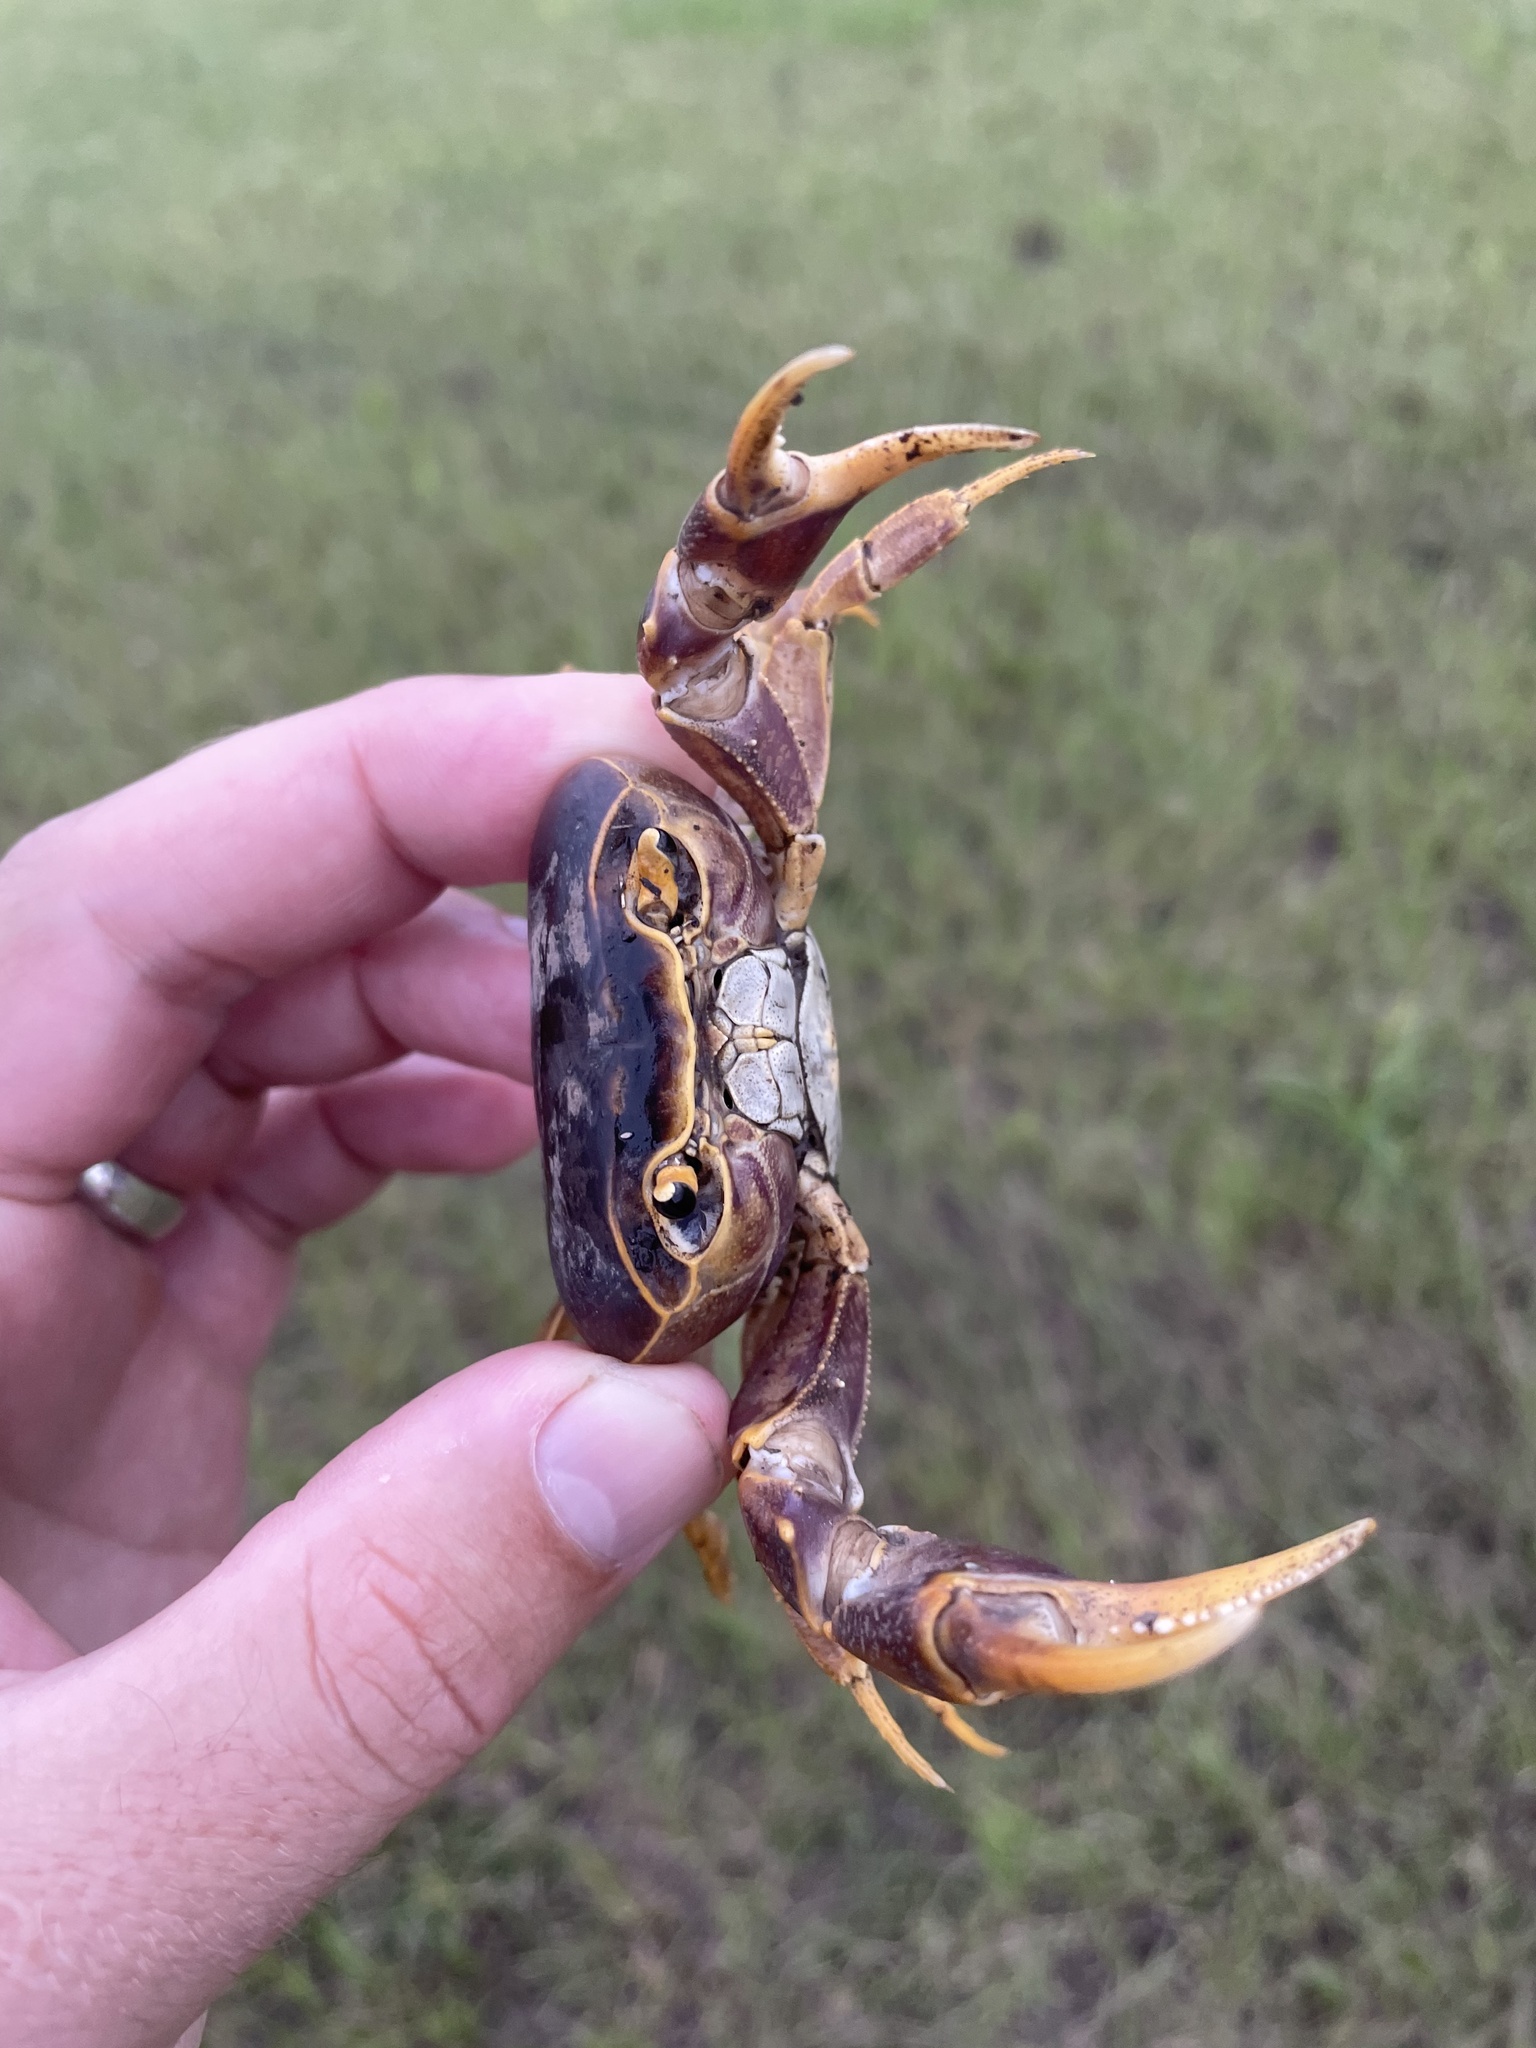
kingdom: Animalia
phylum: Arthropoda
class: Malacostraca
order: Decapoda
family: Potamonautidae
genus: Potamonautes
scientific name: Potamonautes isimangaliso
